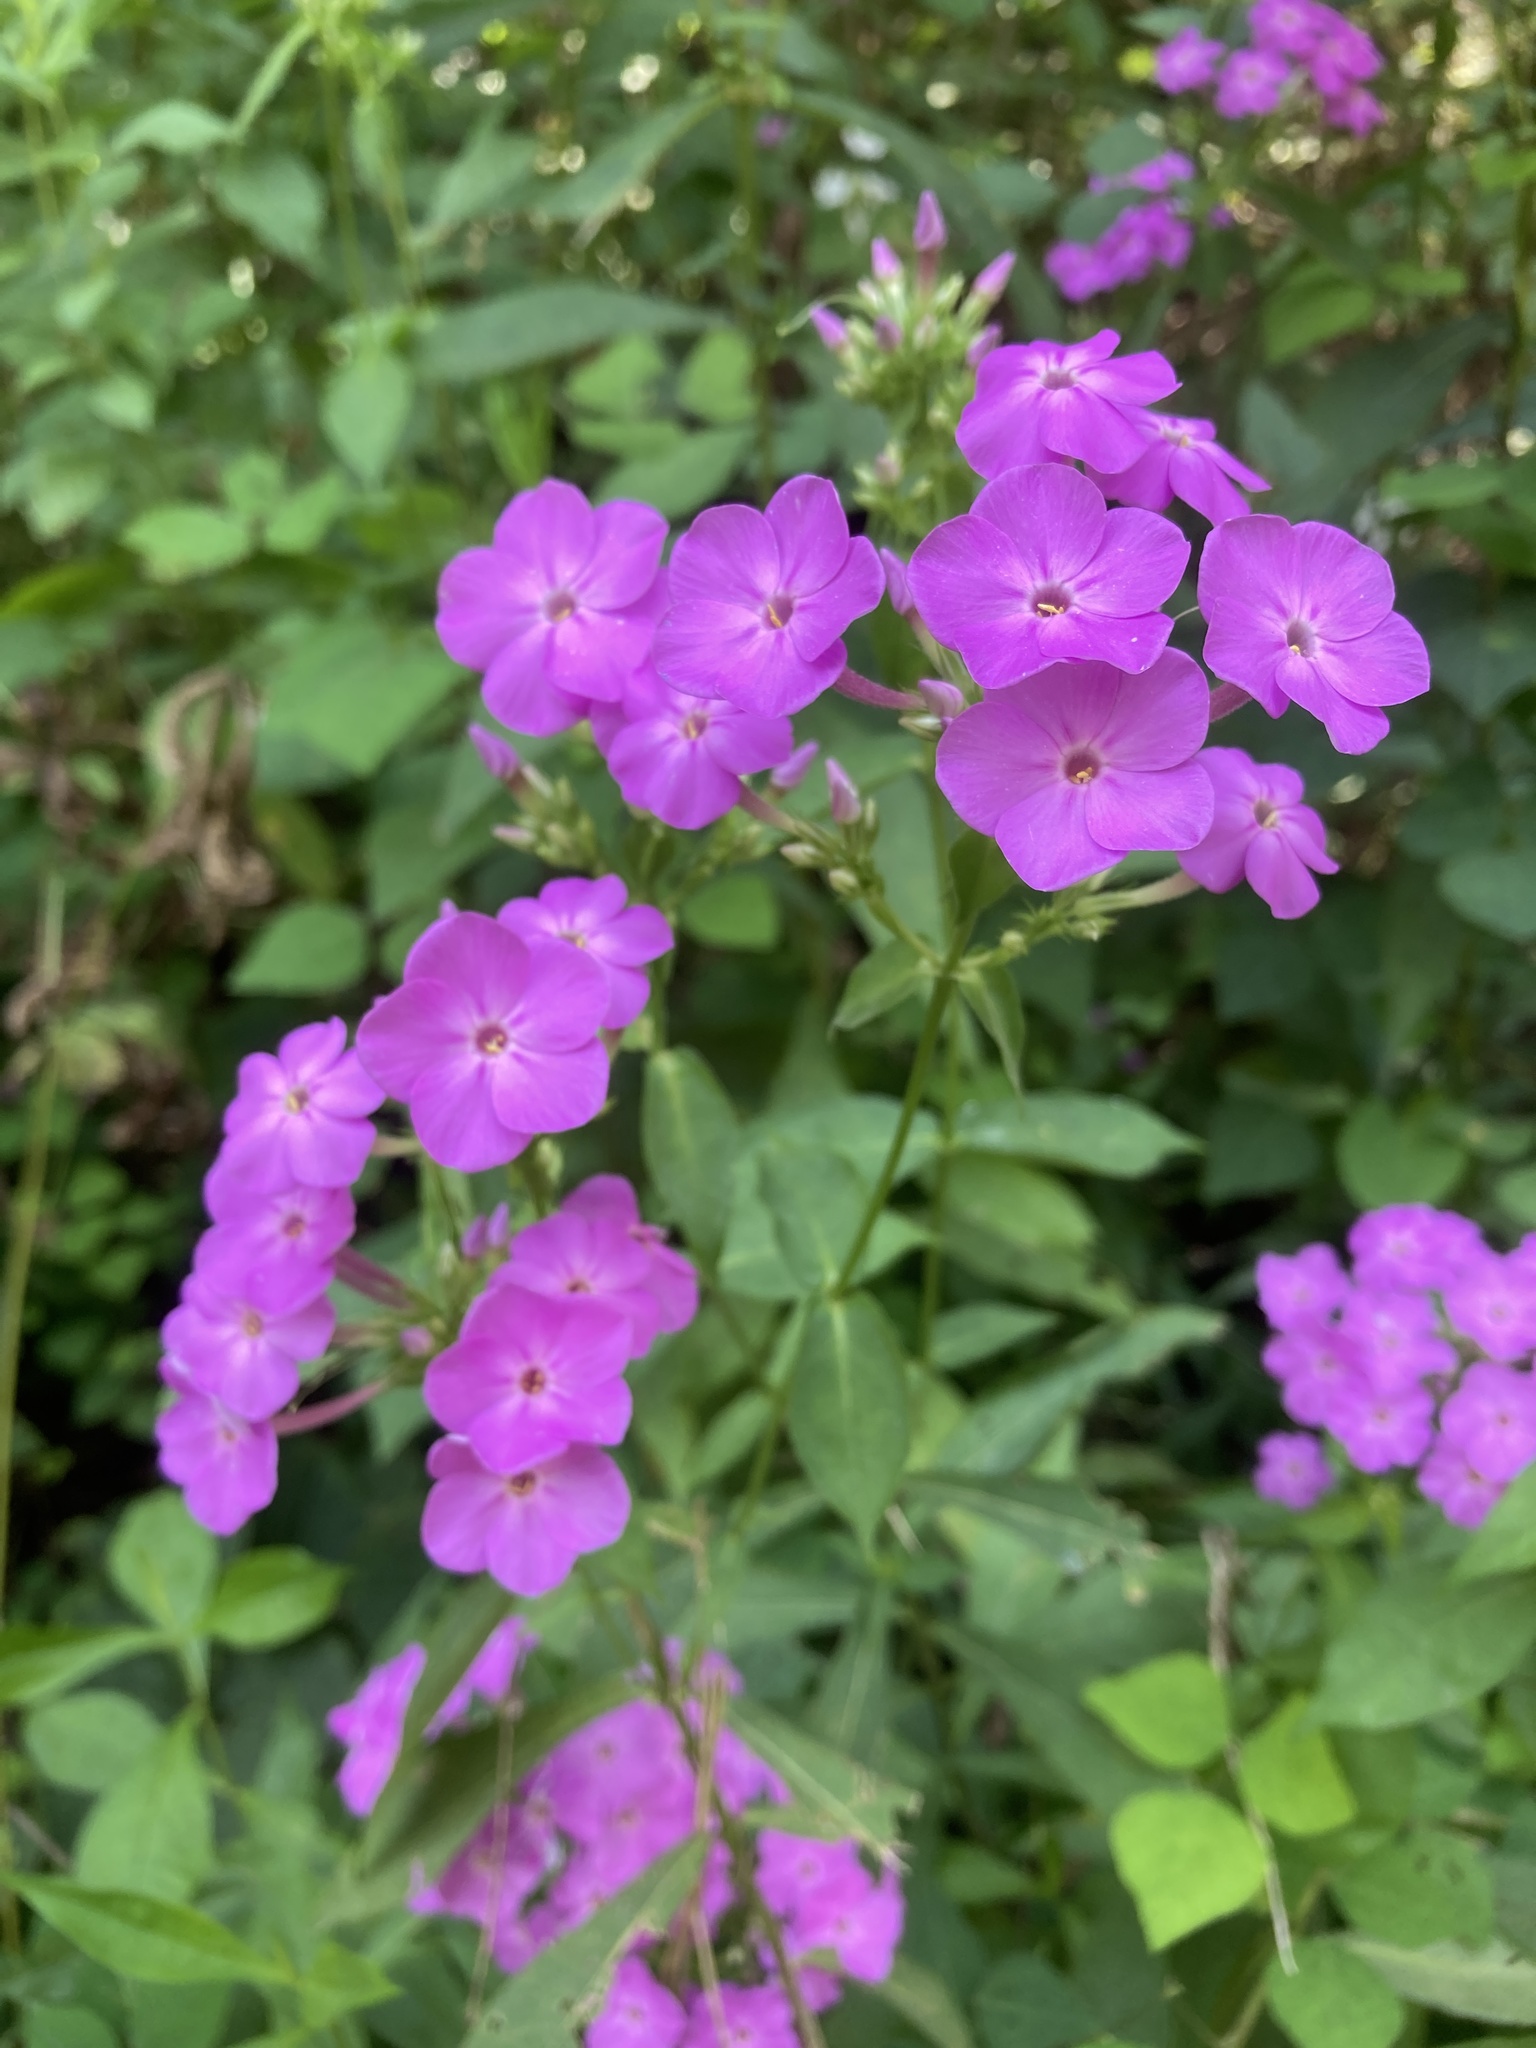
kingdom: Plantae
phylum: Tracheophyta
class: Magnoliopsida
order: Ericales
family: Polemoniaceae
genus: Phlox
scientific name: Phlox paniculata
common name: Fall phlox
